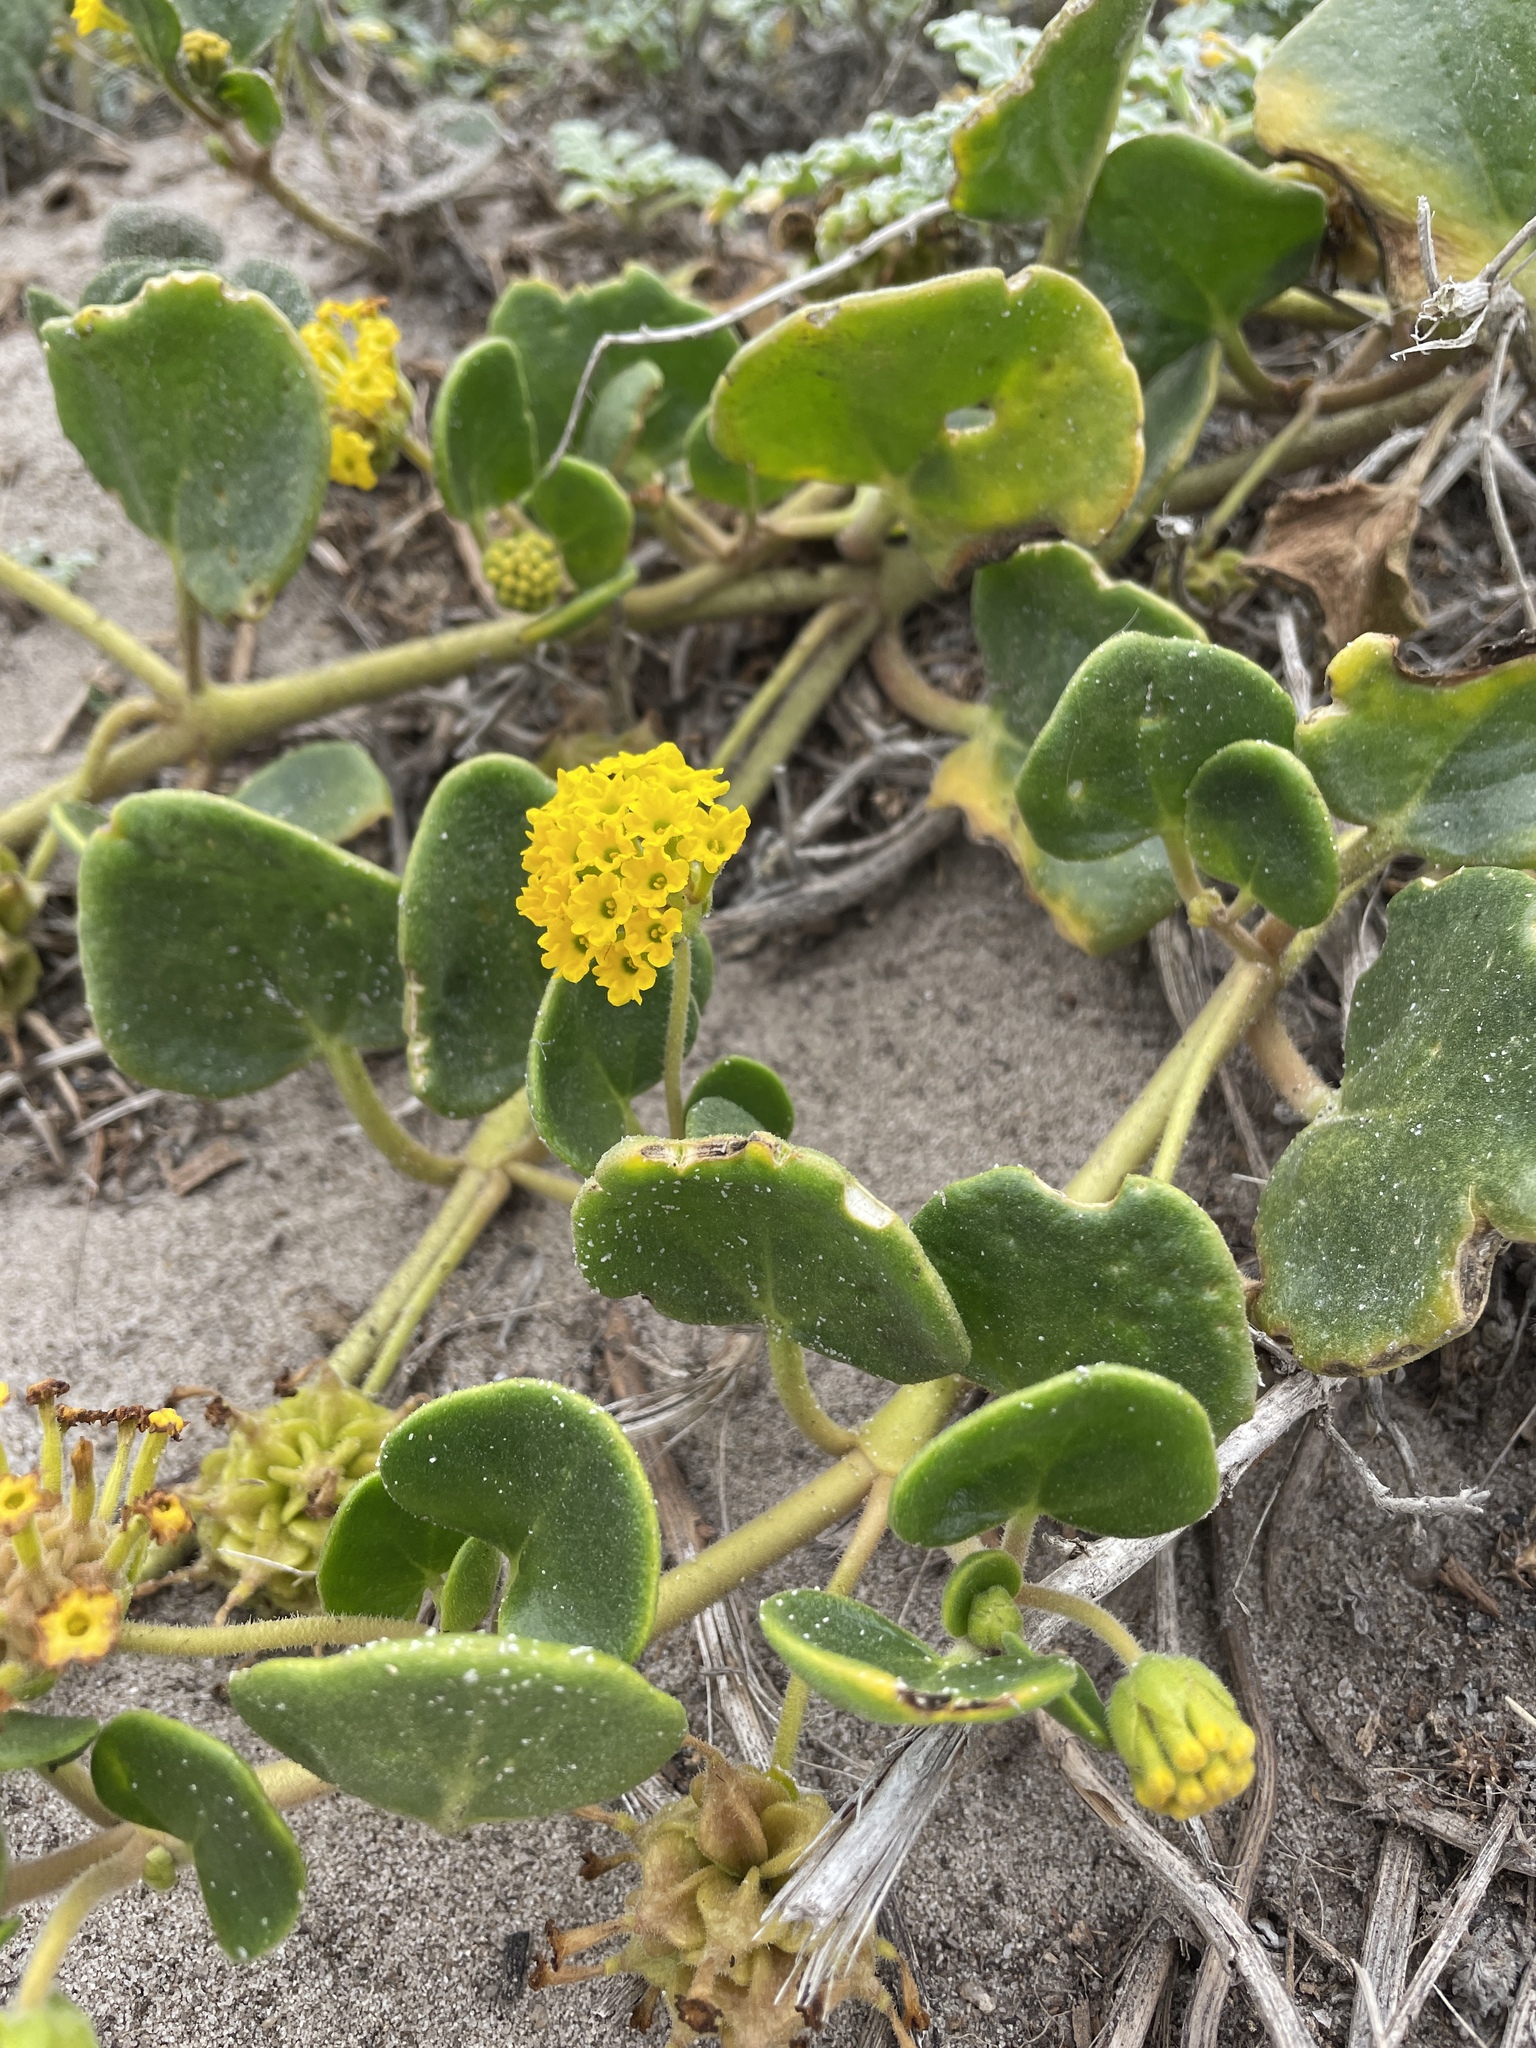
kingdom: Plantae
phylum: Tracheophyta
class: Magnoliopsida
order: Caryophyllales
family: Nyctaginaceae
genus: Abronia
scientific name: Abronia latifolia
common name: Yellow sand-verbena
